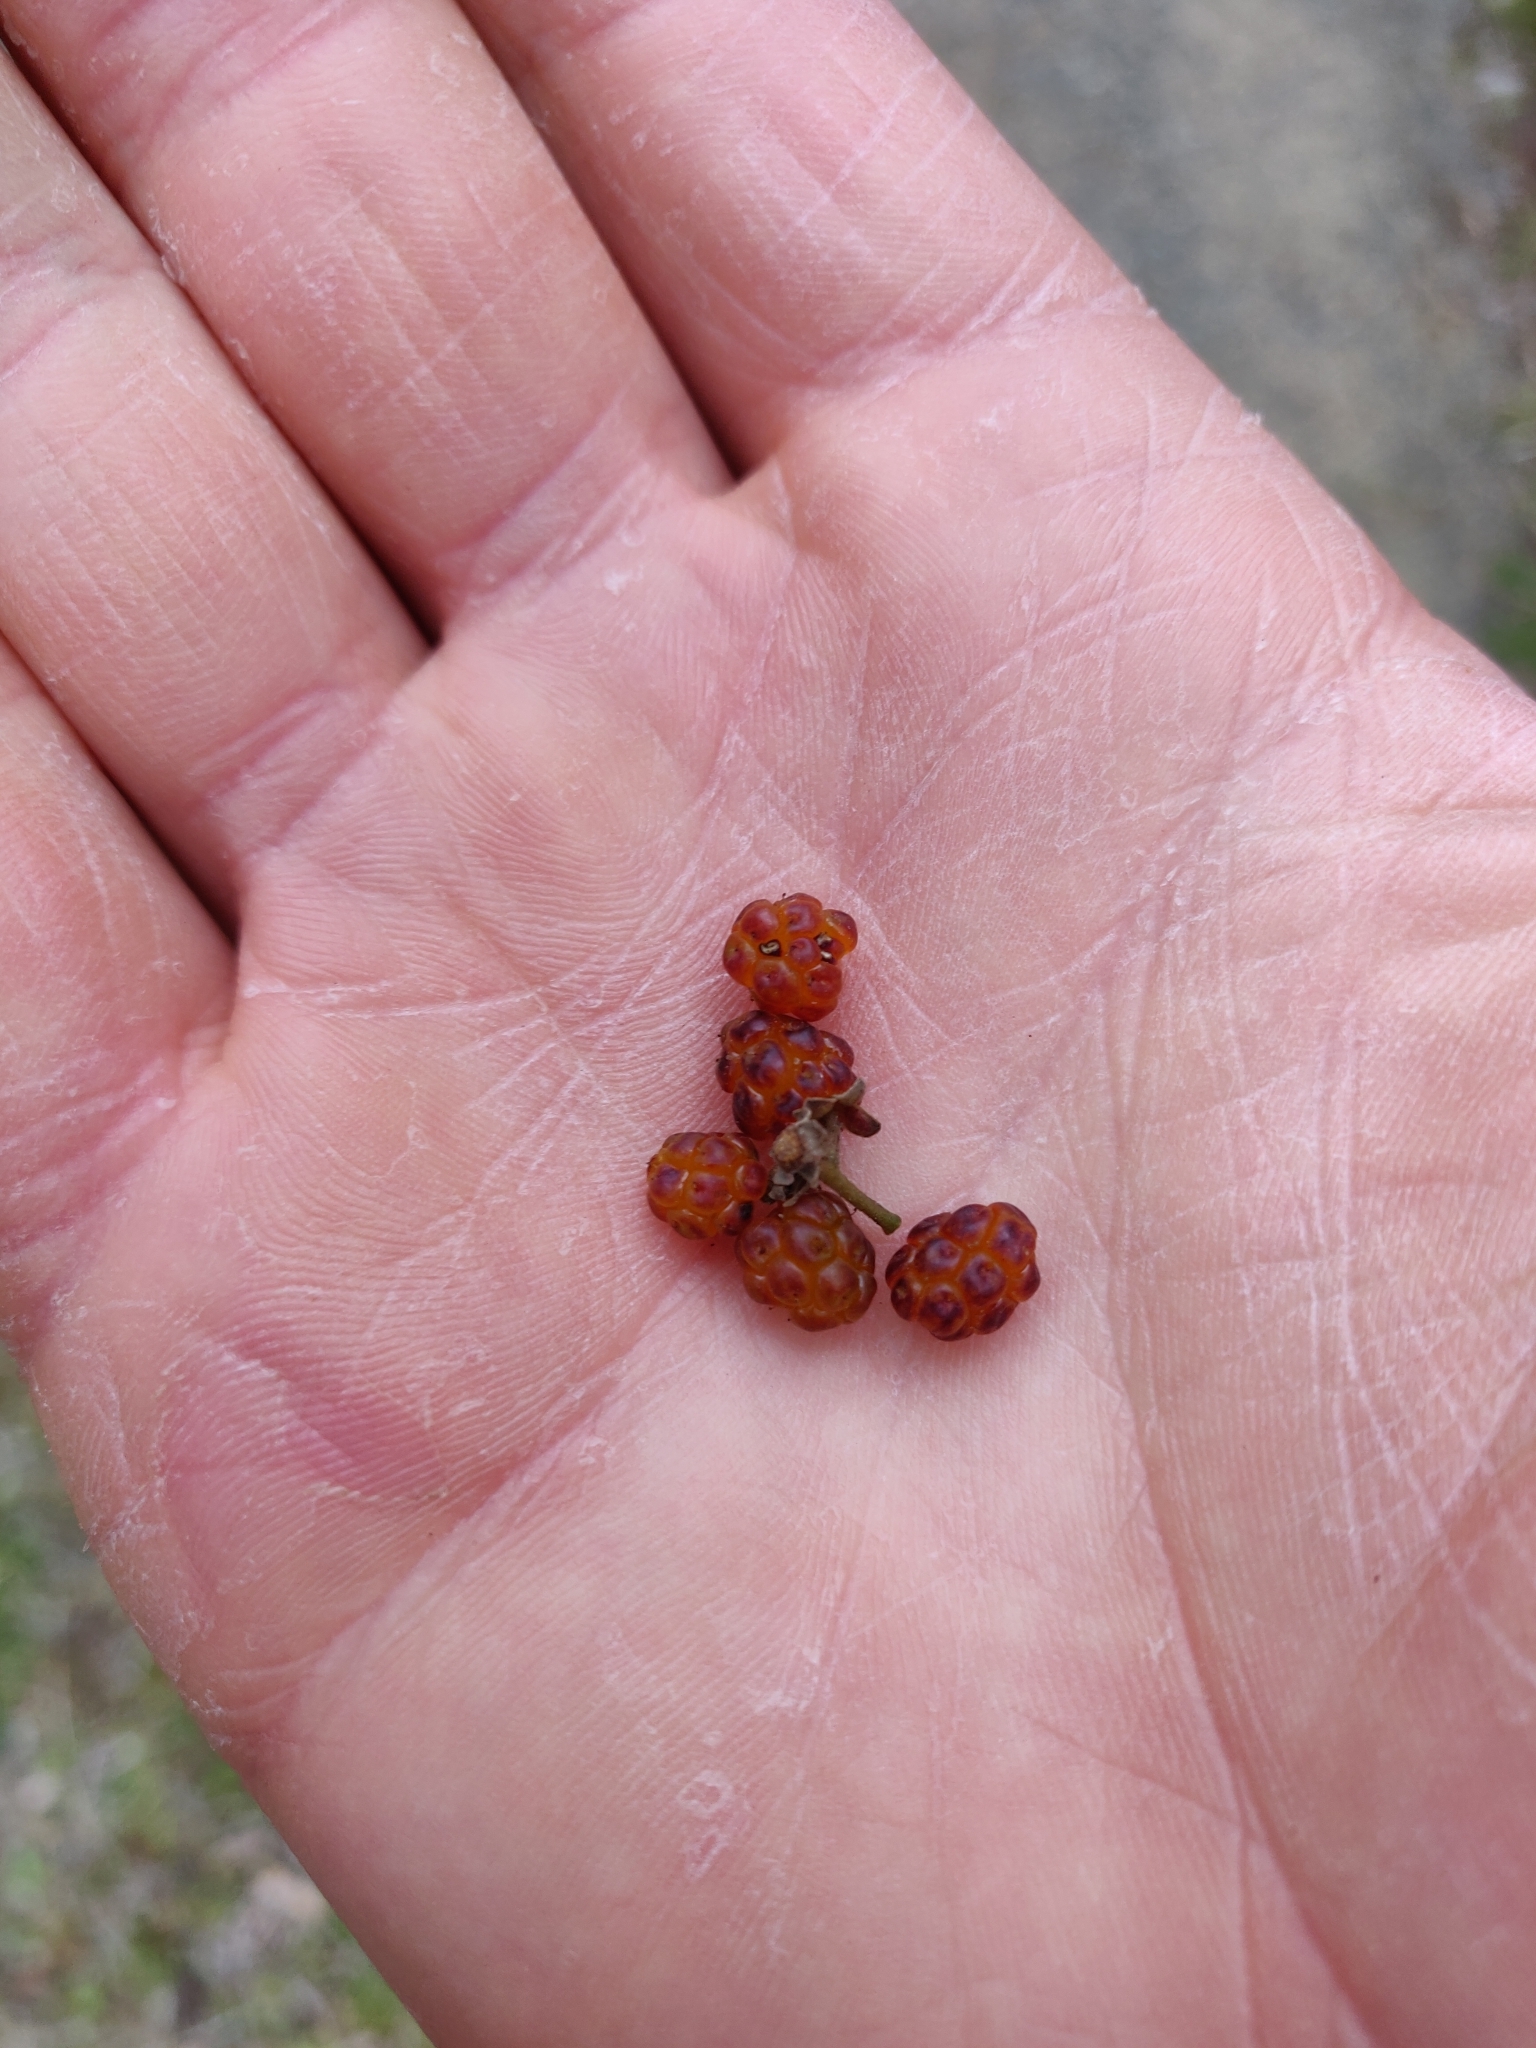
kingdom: Plantae
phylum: Tracheophyta
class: Magnoliopsida
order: Rosales
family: Rosaceae
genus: Rubus
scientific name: Rubus cissoides
